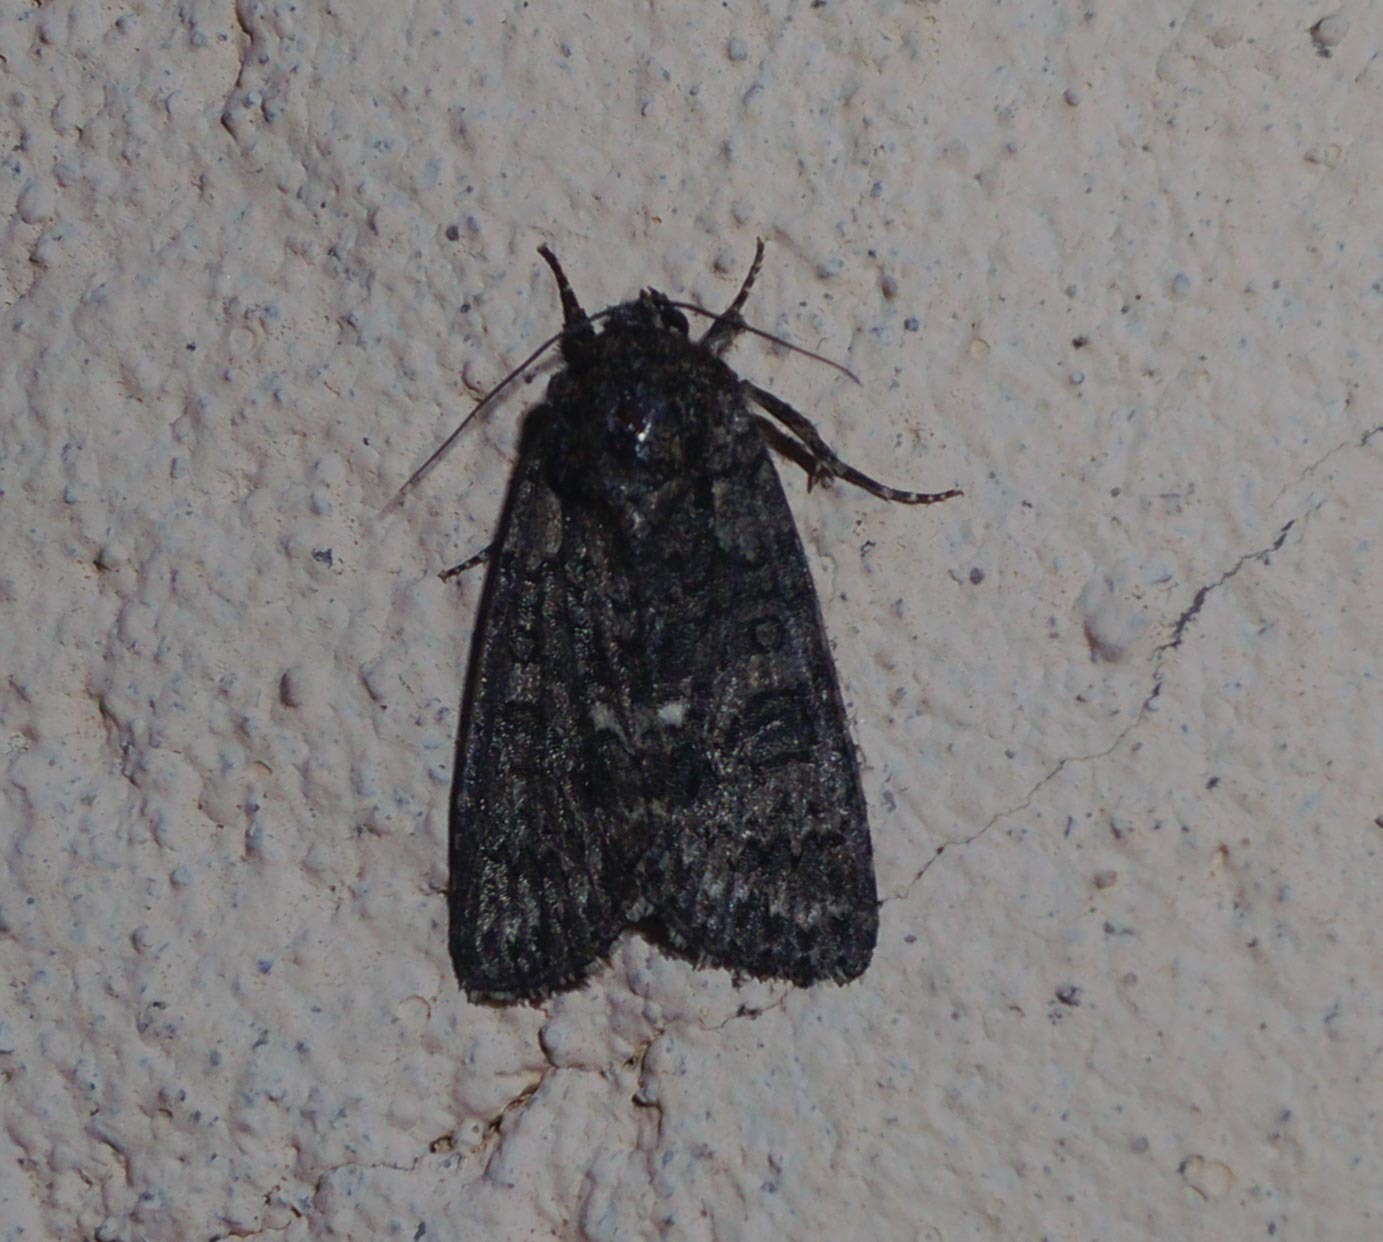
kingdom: Animalia
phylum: Arthropoda
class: Insecta
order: Lepidoptera
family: Noctuidae
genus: Acronicta
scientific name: Acronicta rumicis
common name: Knot grass
